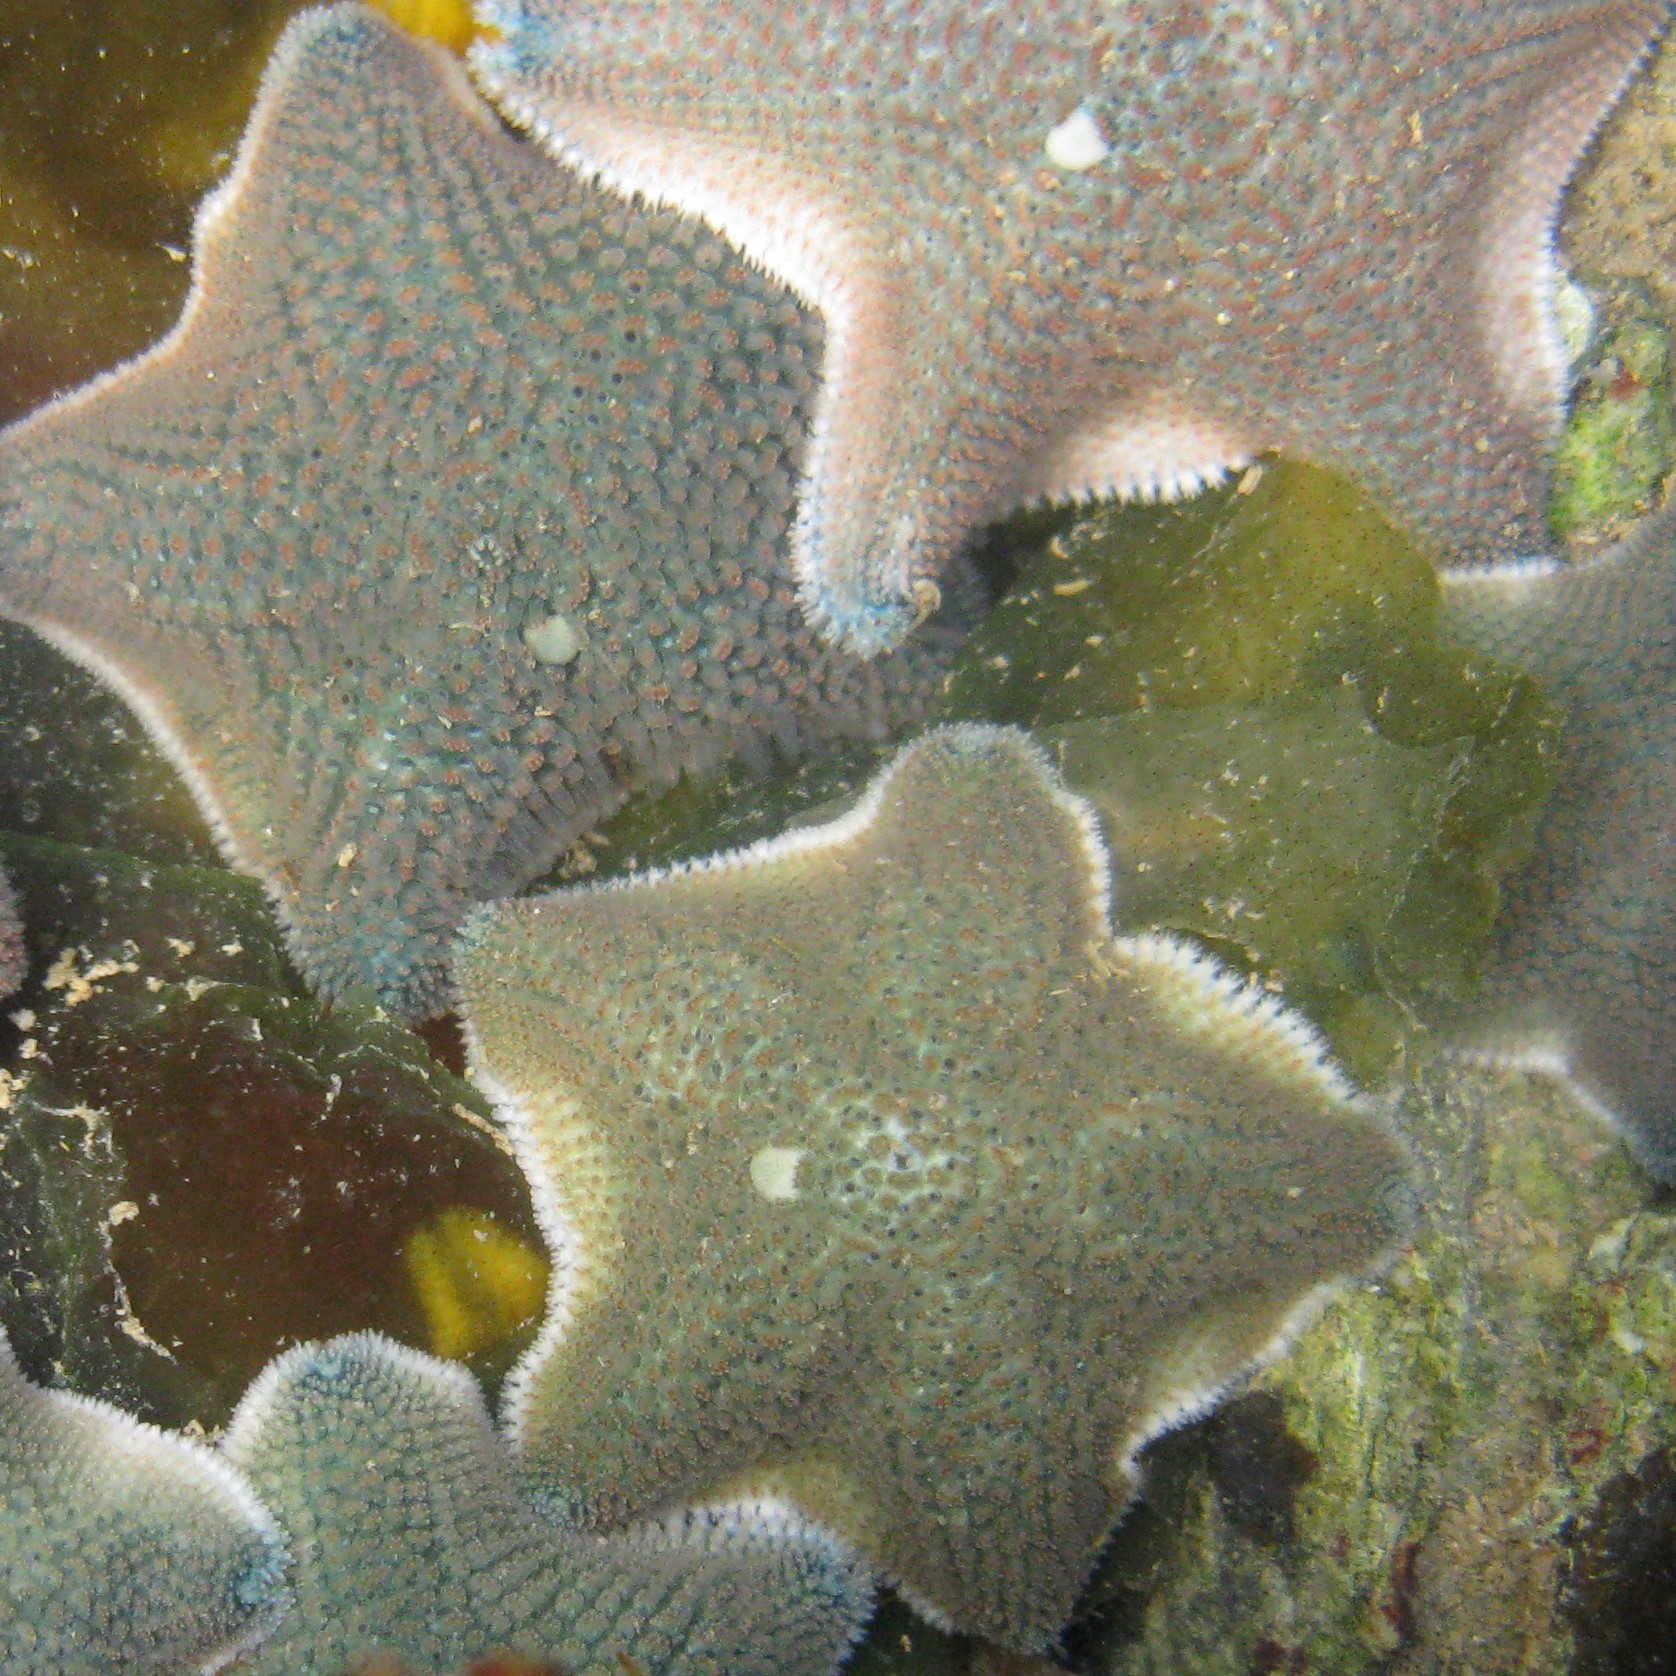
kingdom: Animalia
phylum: Echinodermata
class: Asteroidea
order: Valvatida
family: Asterinidae
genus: Patiriella
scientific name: Patiriella regularis
